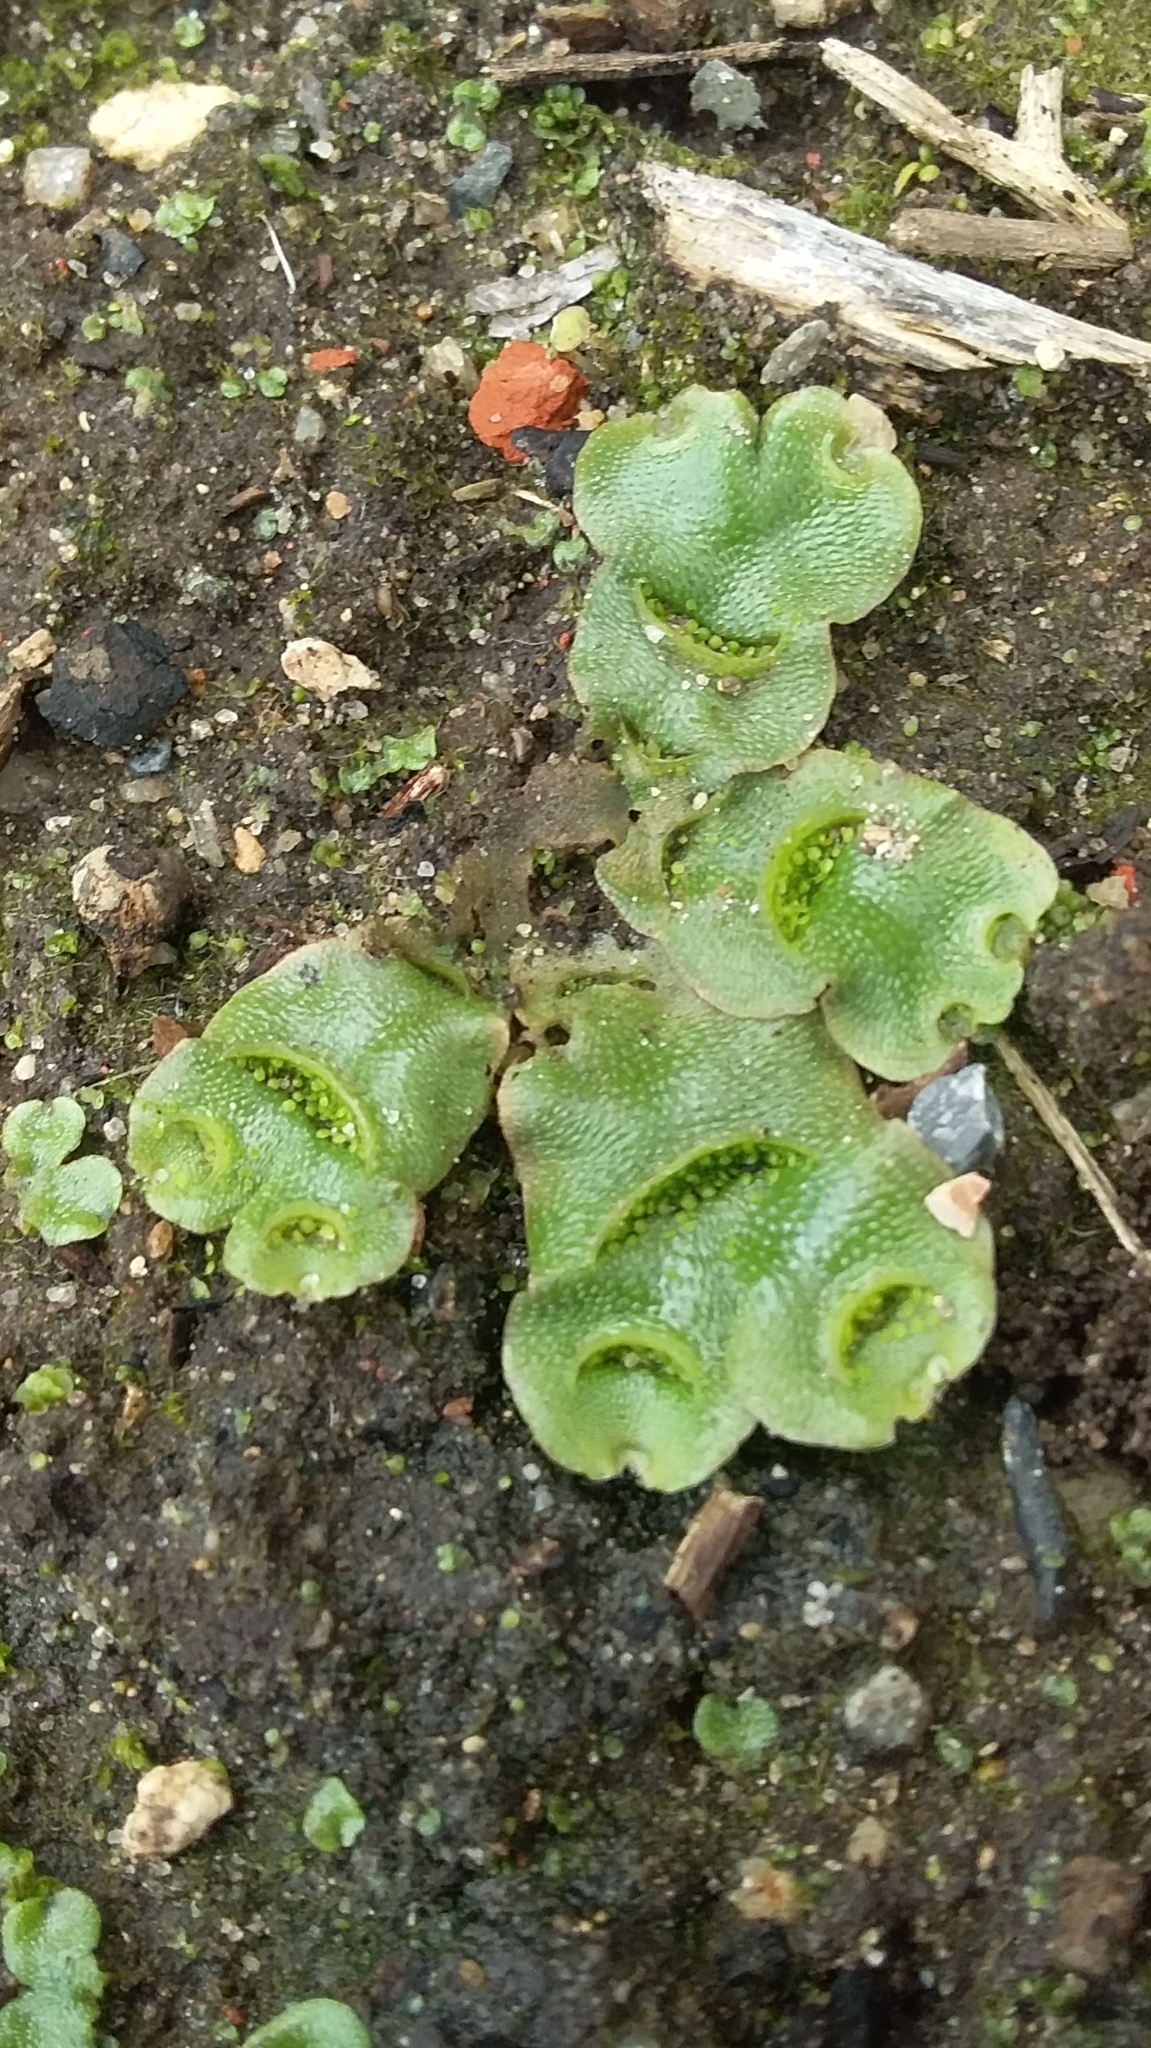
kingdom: Plantae
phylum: Marchantiophyta
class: Marchantiopsida
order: Lunulariales
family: Lunulariaceae
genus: Lunularia
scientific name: Lunularia cruciata
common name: Crescent-cup liverwort
